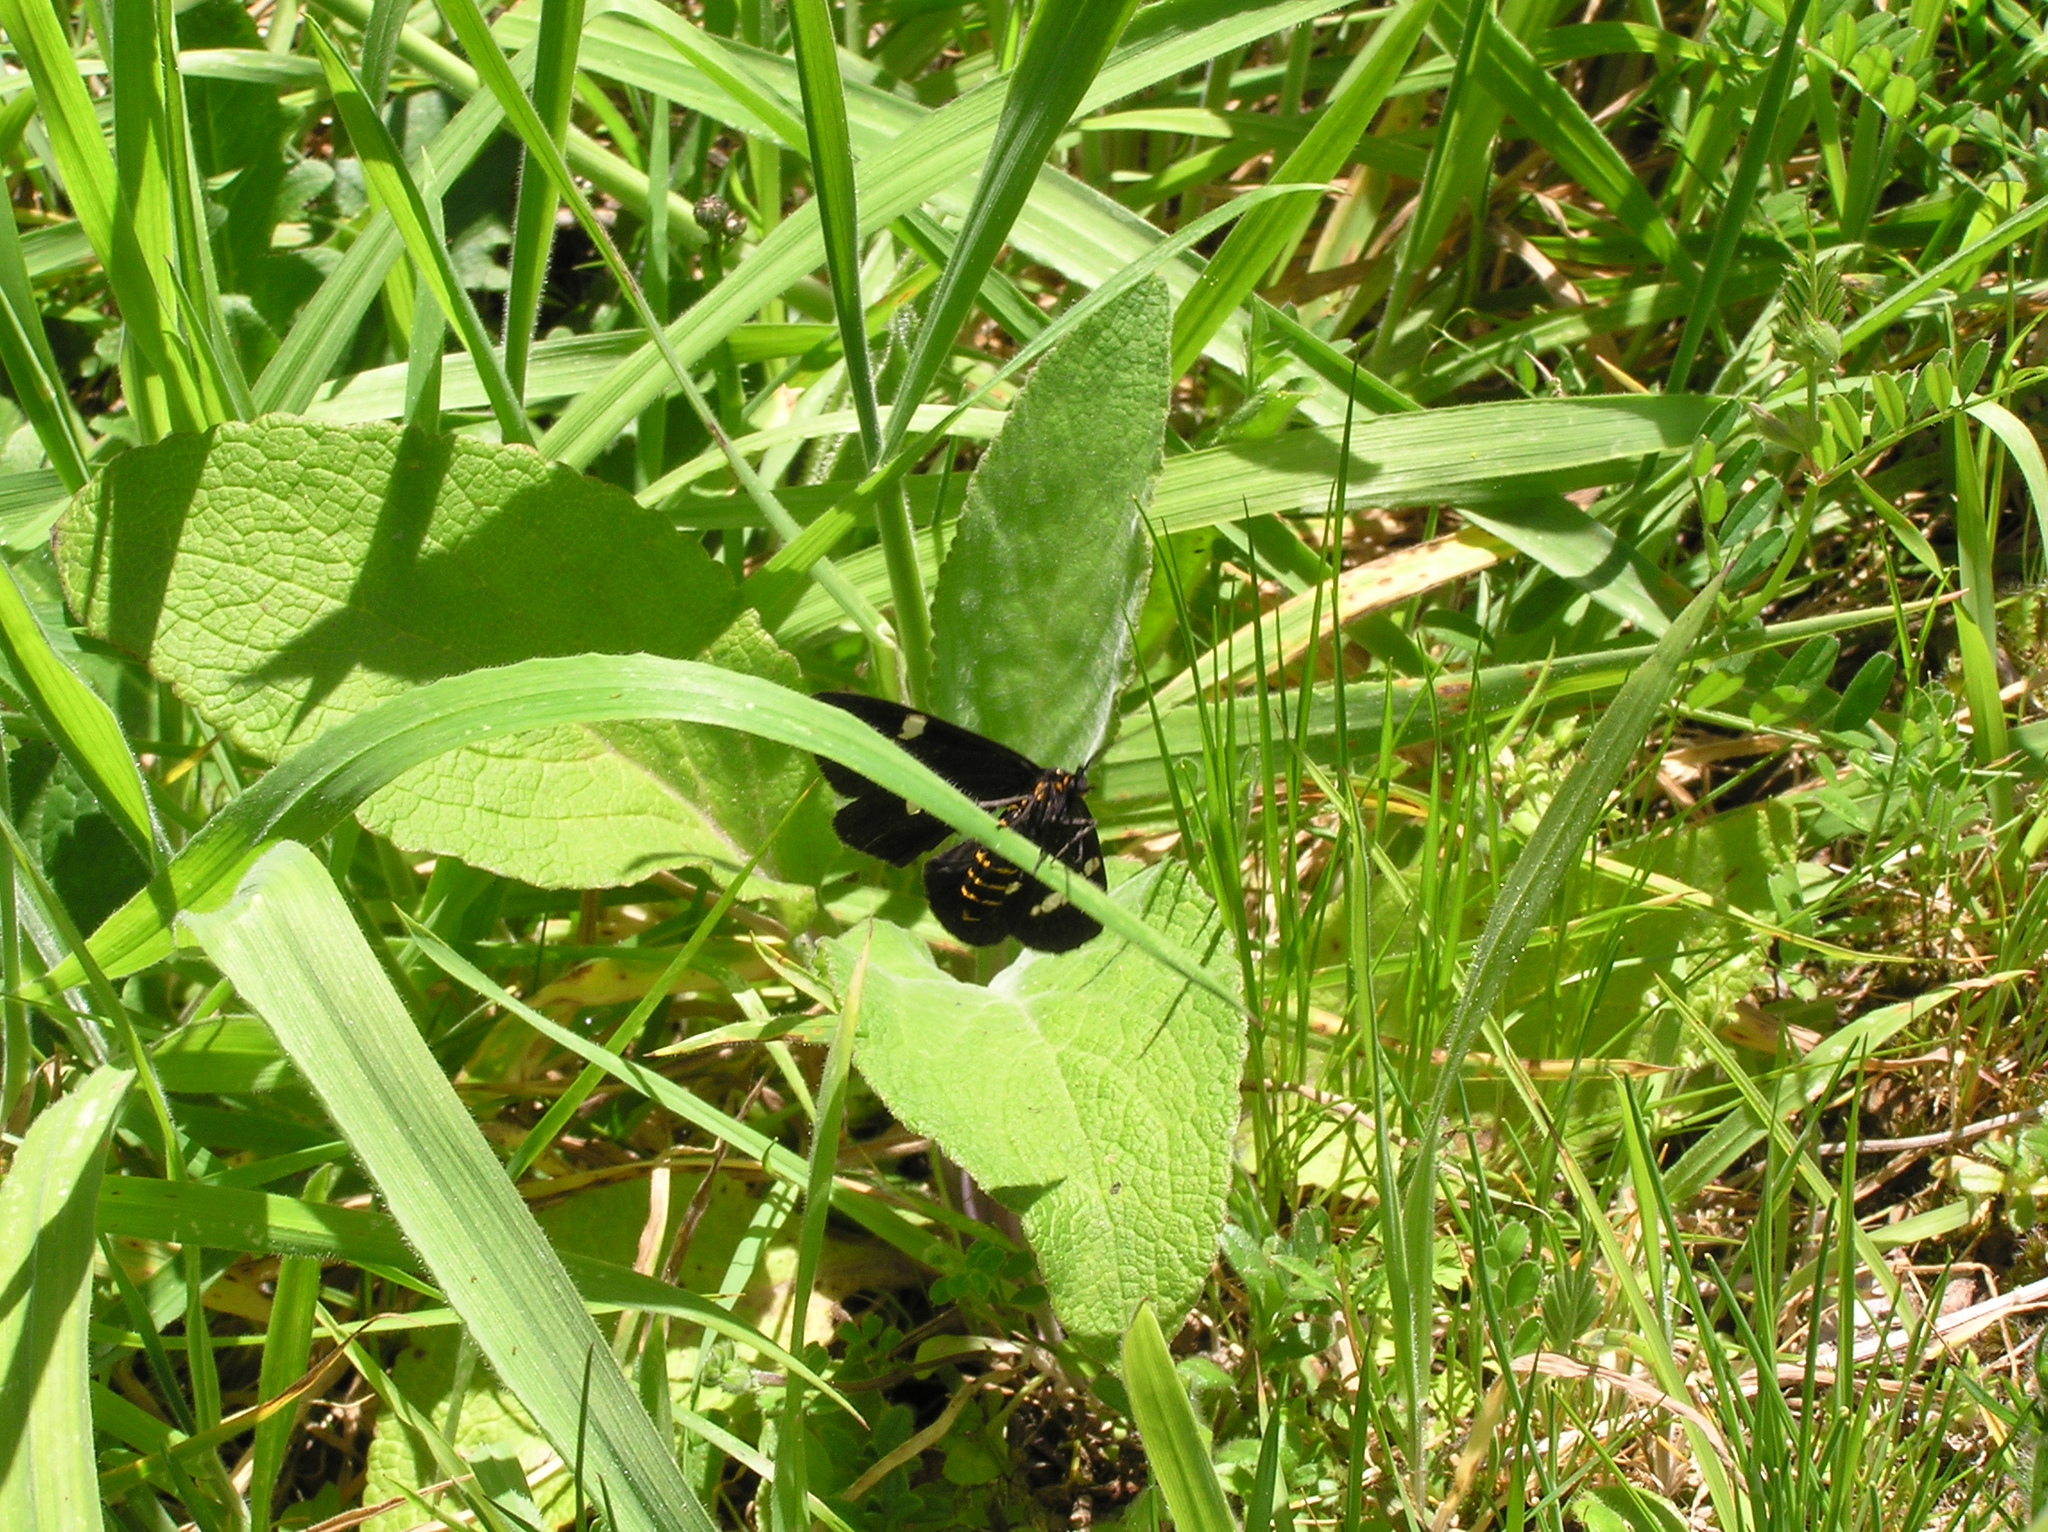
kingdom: Animalia
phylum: Arthropoda
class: Insecta
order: Lepidoptera
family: Erebidae
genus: Nyctemera
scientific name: Nyctemera annulatum
